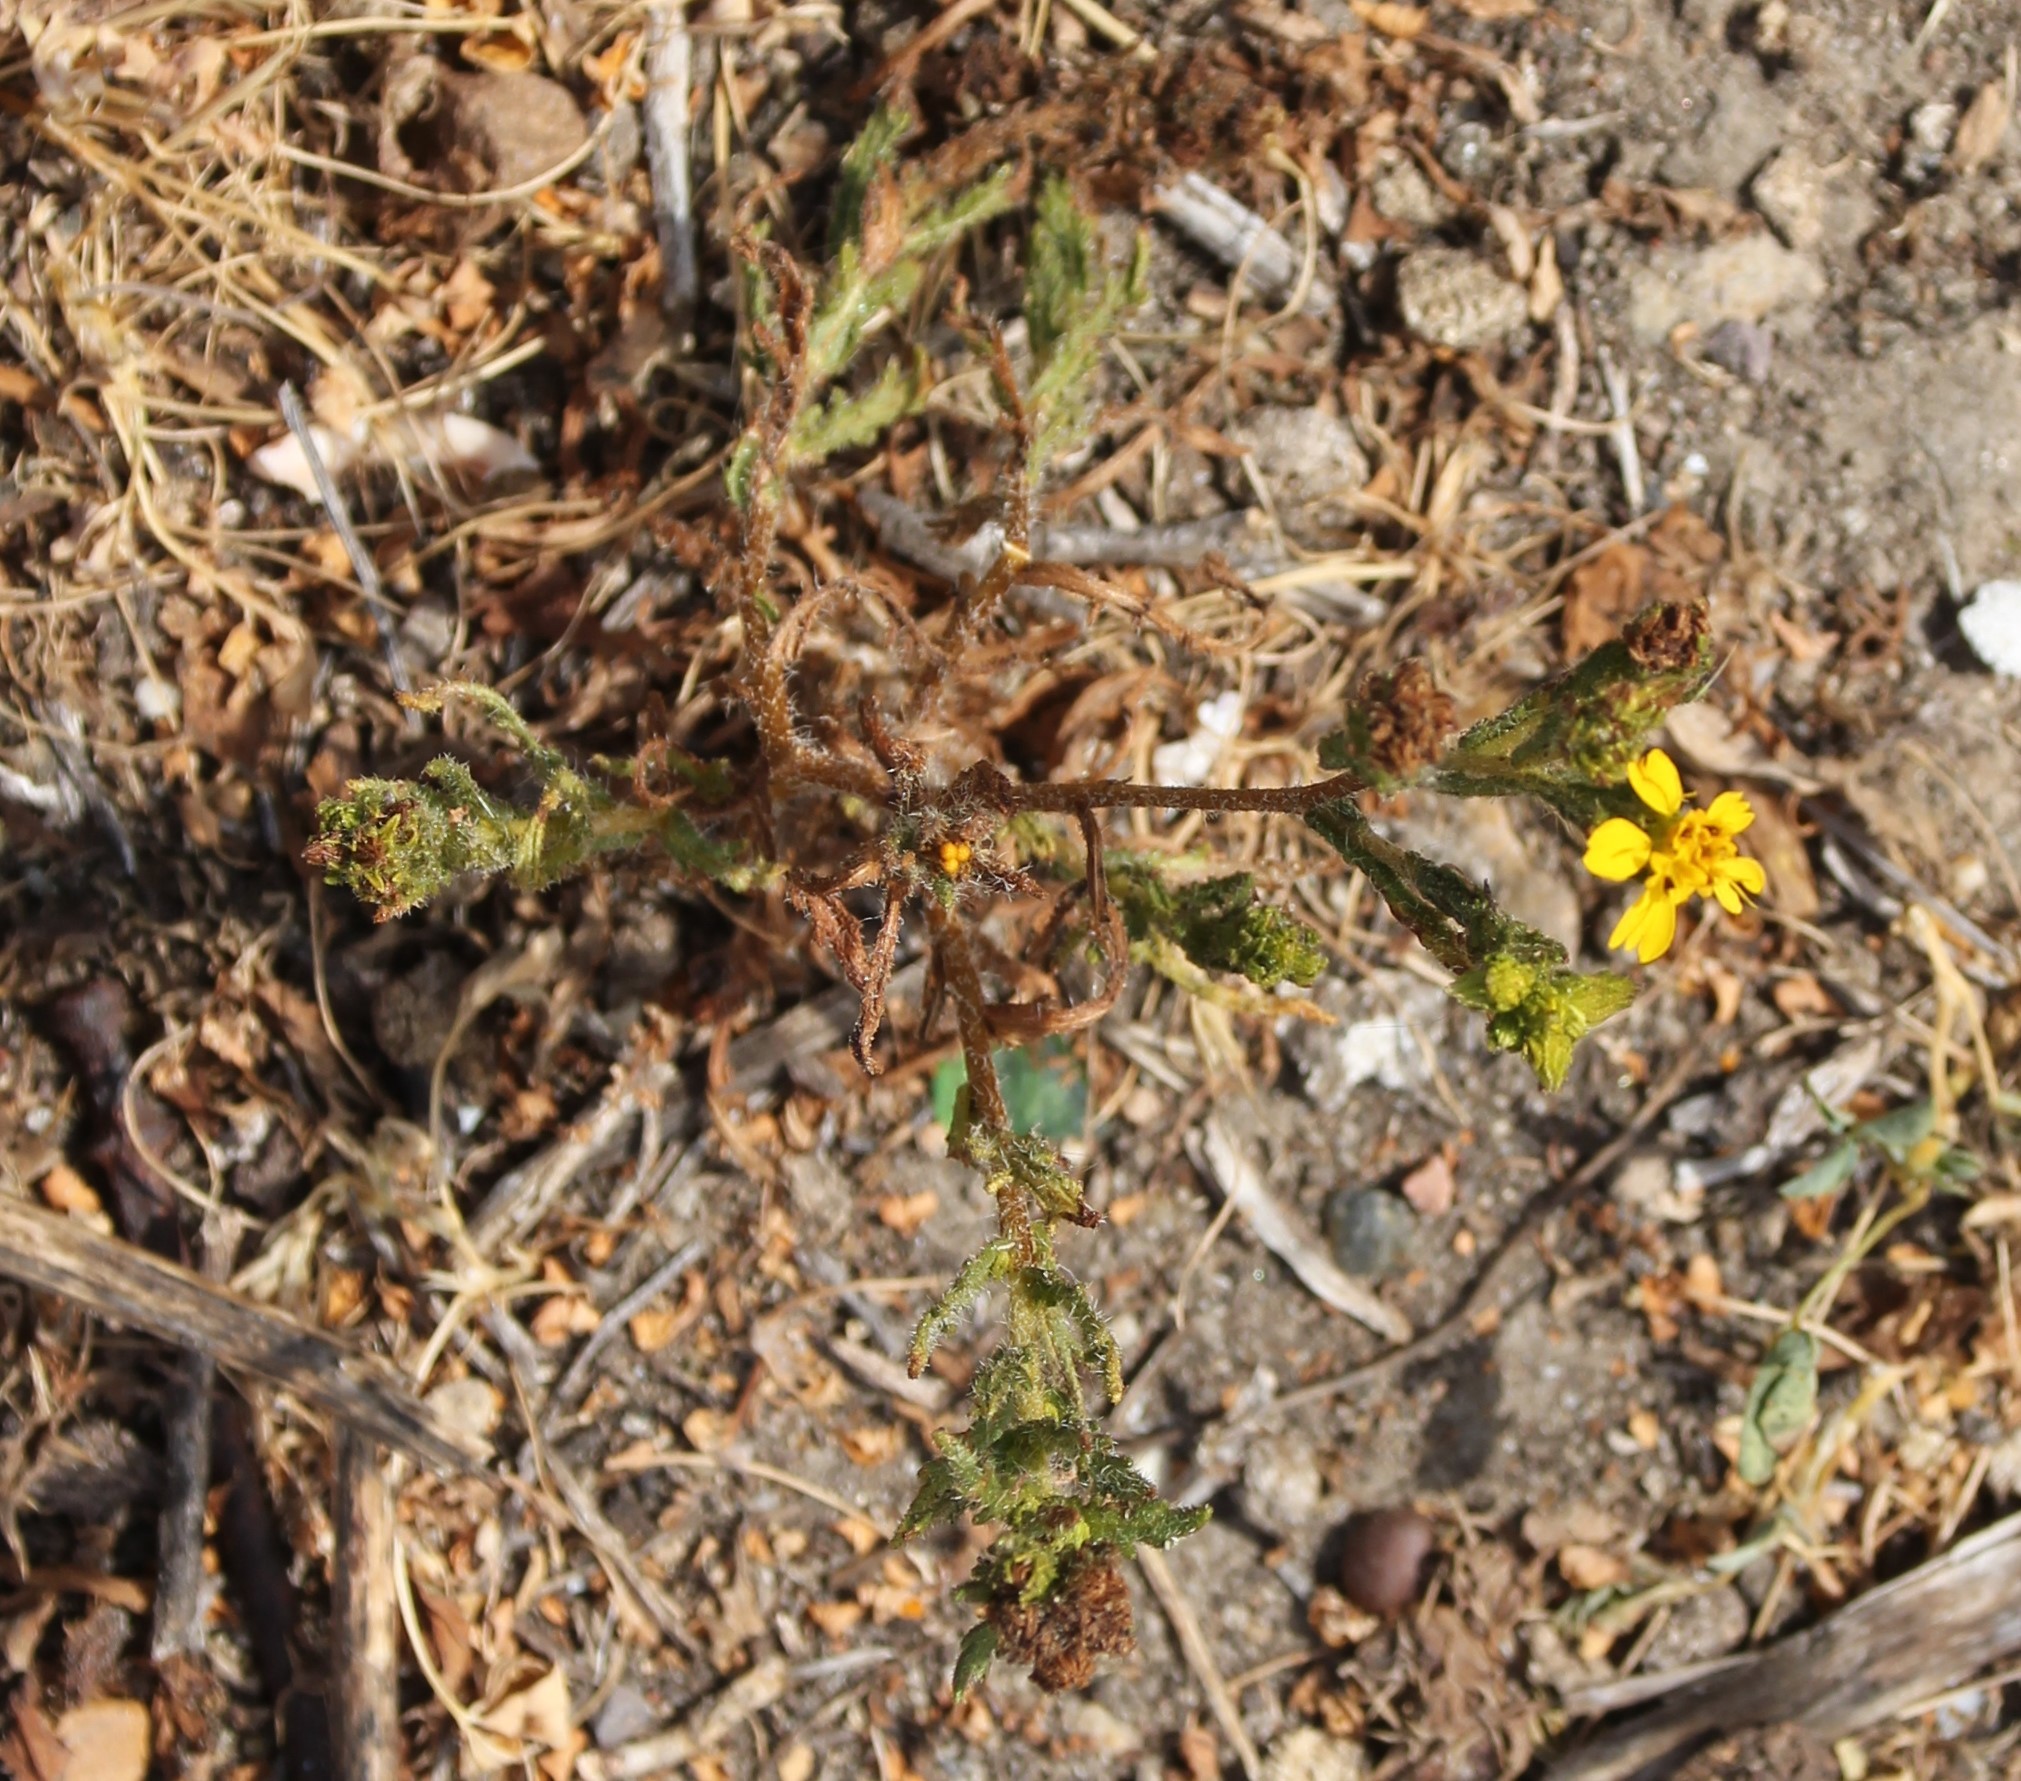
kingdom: Plantae
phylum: Tracheophyta
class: Magnoliopsida
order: Asterales
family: Asteraceae
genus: Deinandra
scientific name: Deinandra fasciculata
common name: Clustered tarweed
